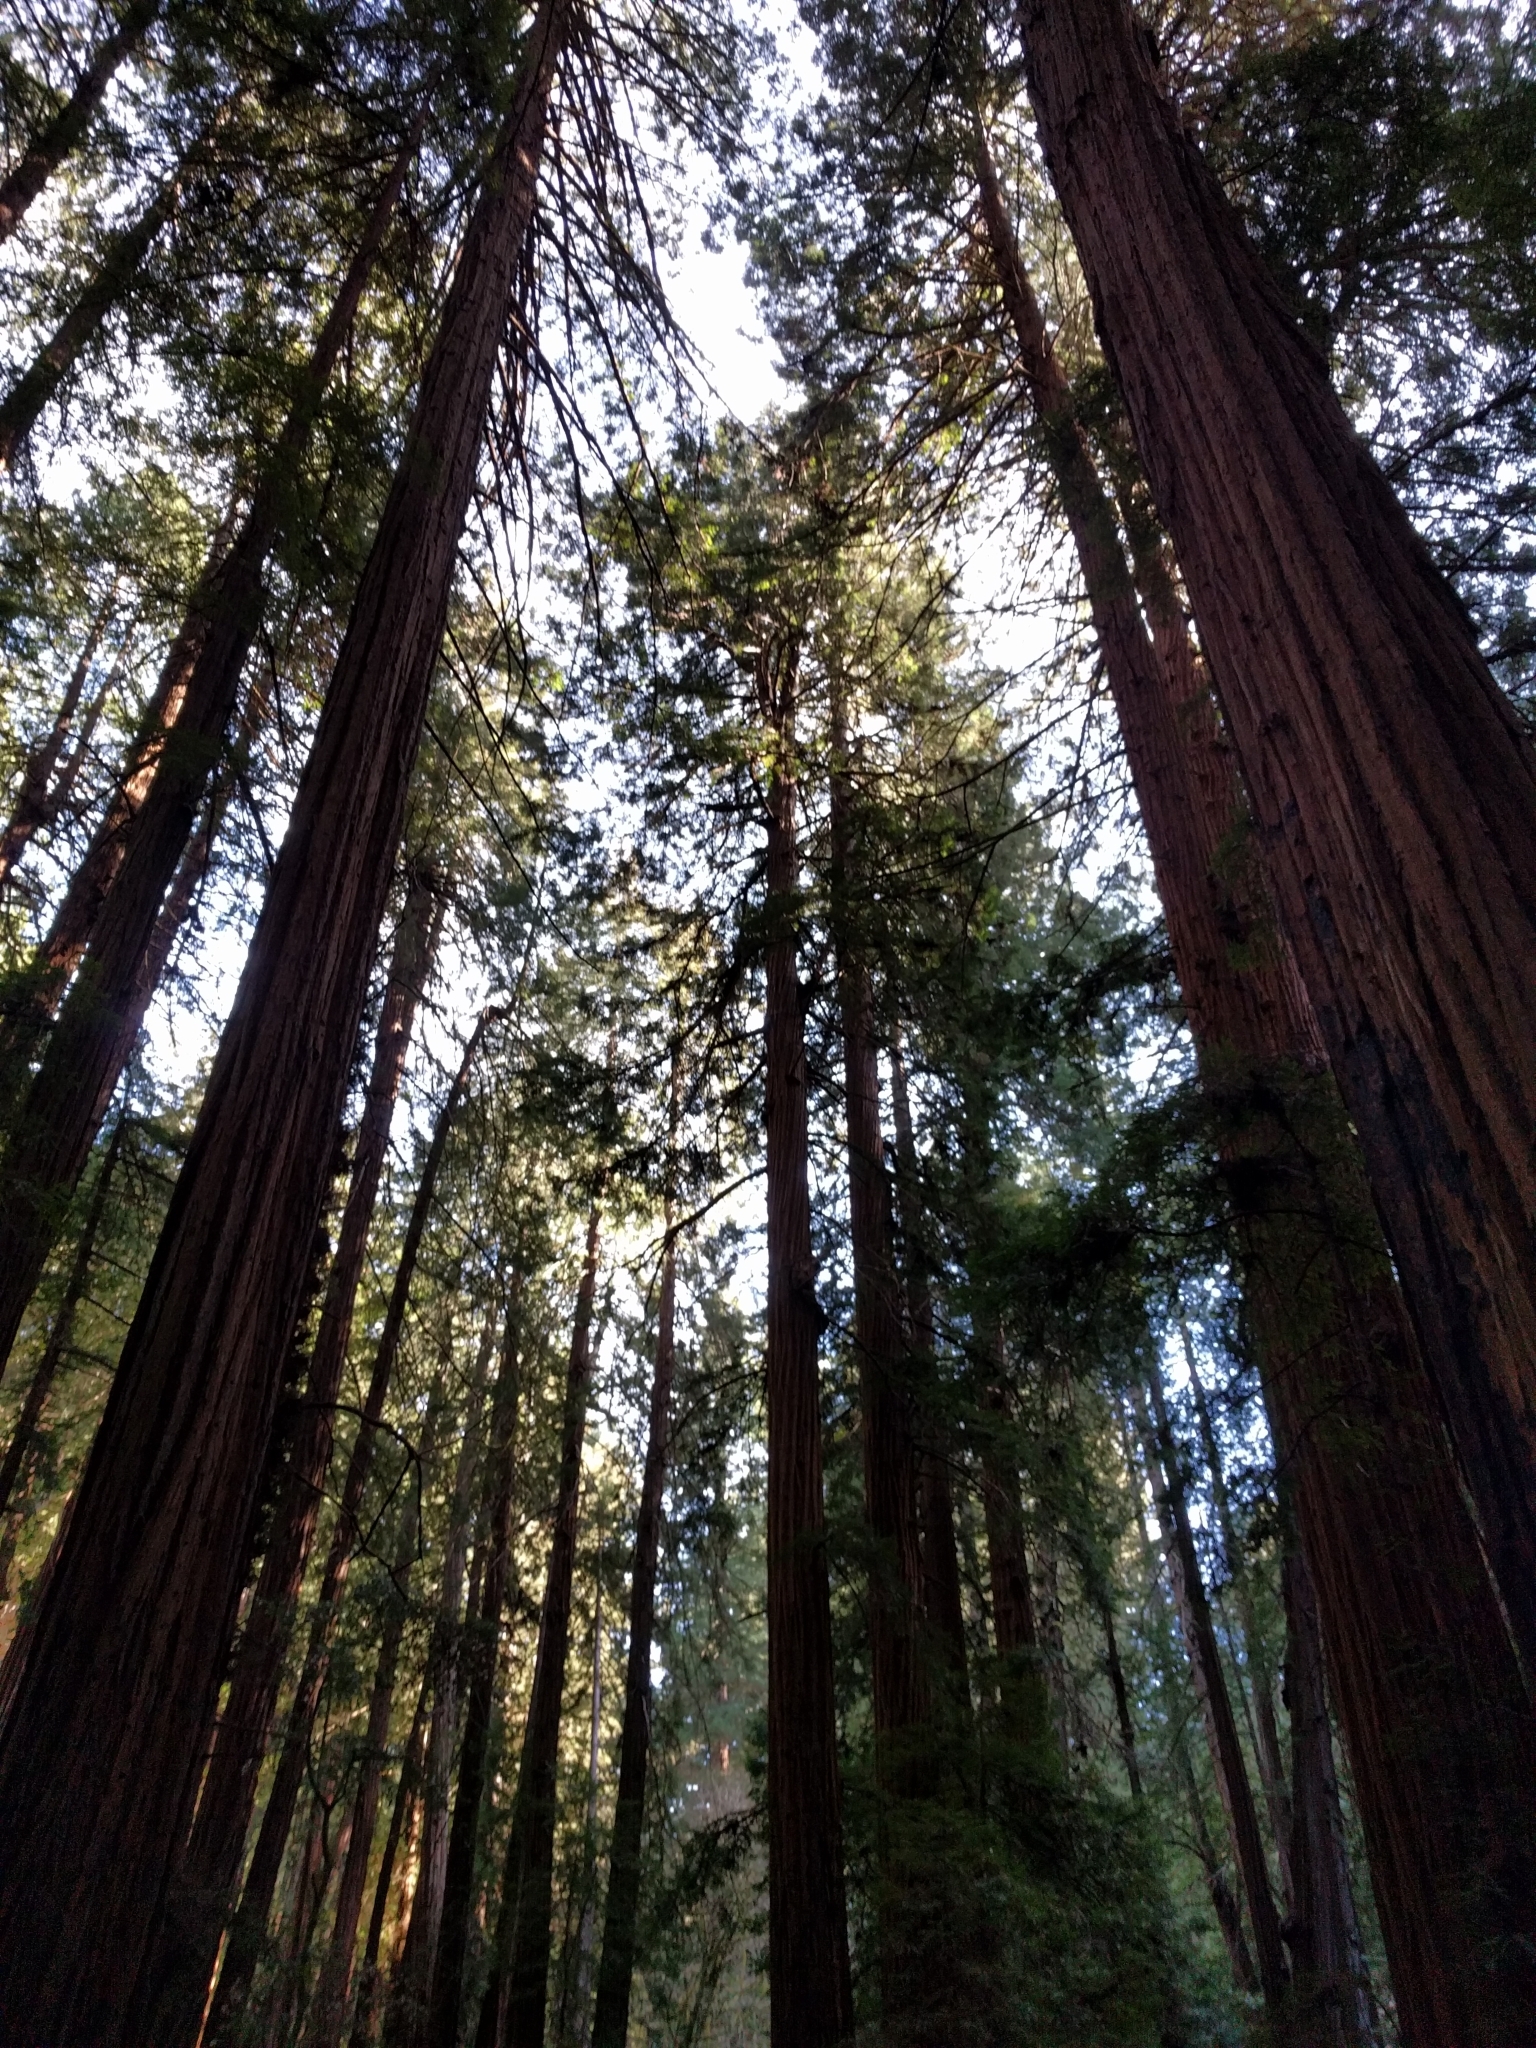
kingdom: Plantae
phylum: Tracheophyta
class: Pinopsida
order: Pinales
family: Cupressaceae
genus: Sequoia
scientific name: Sequoia sempervirens
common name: Coast redwood
